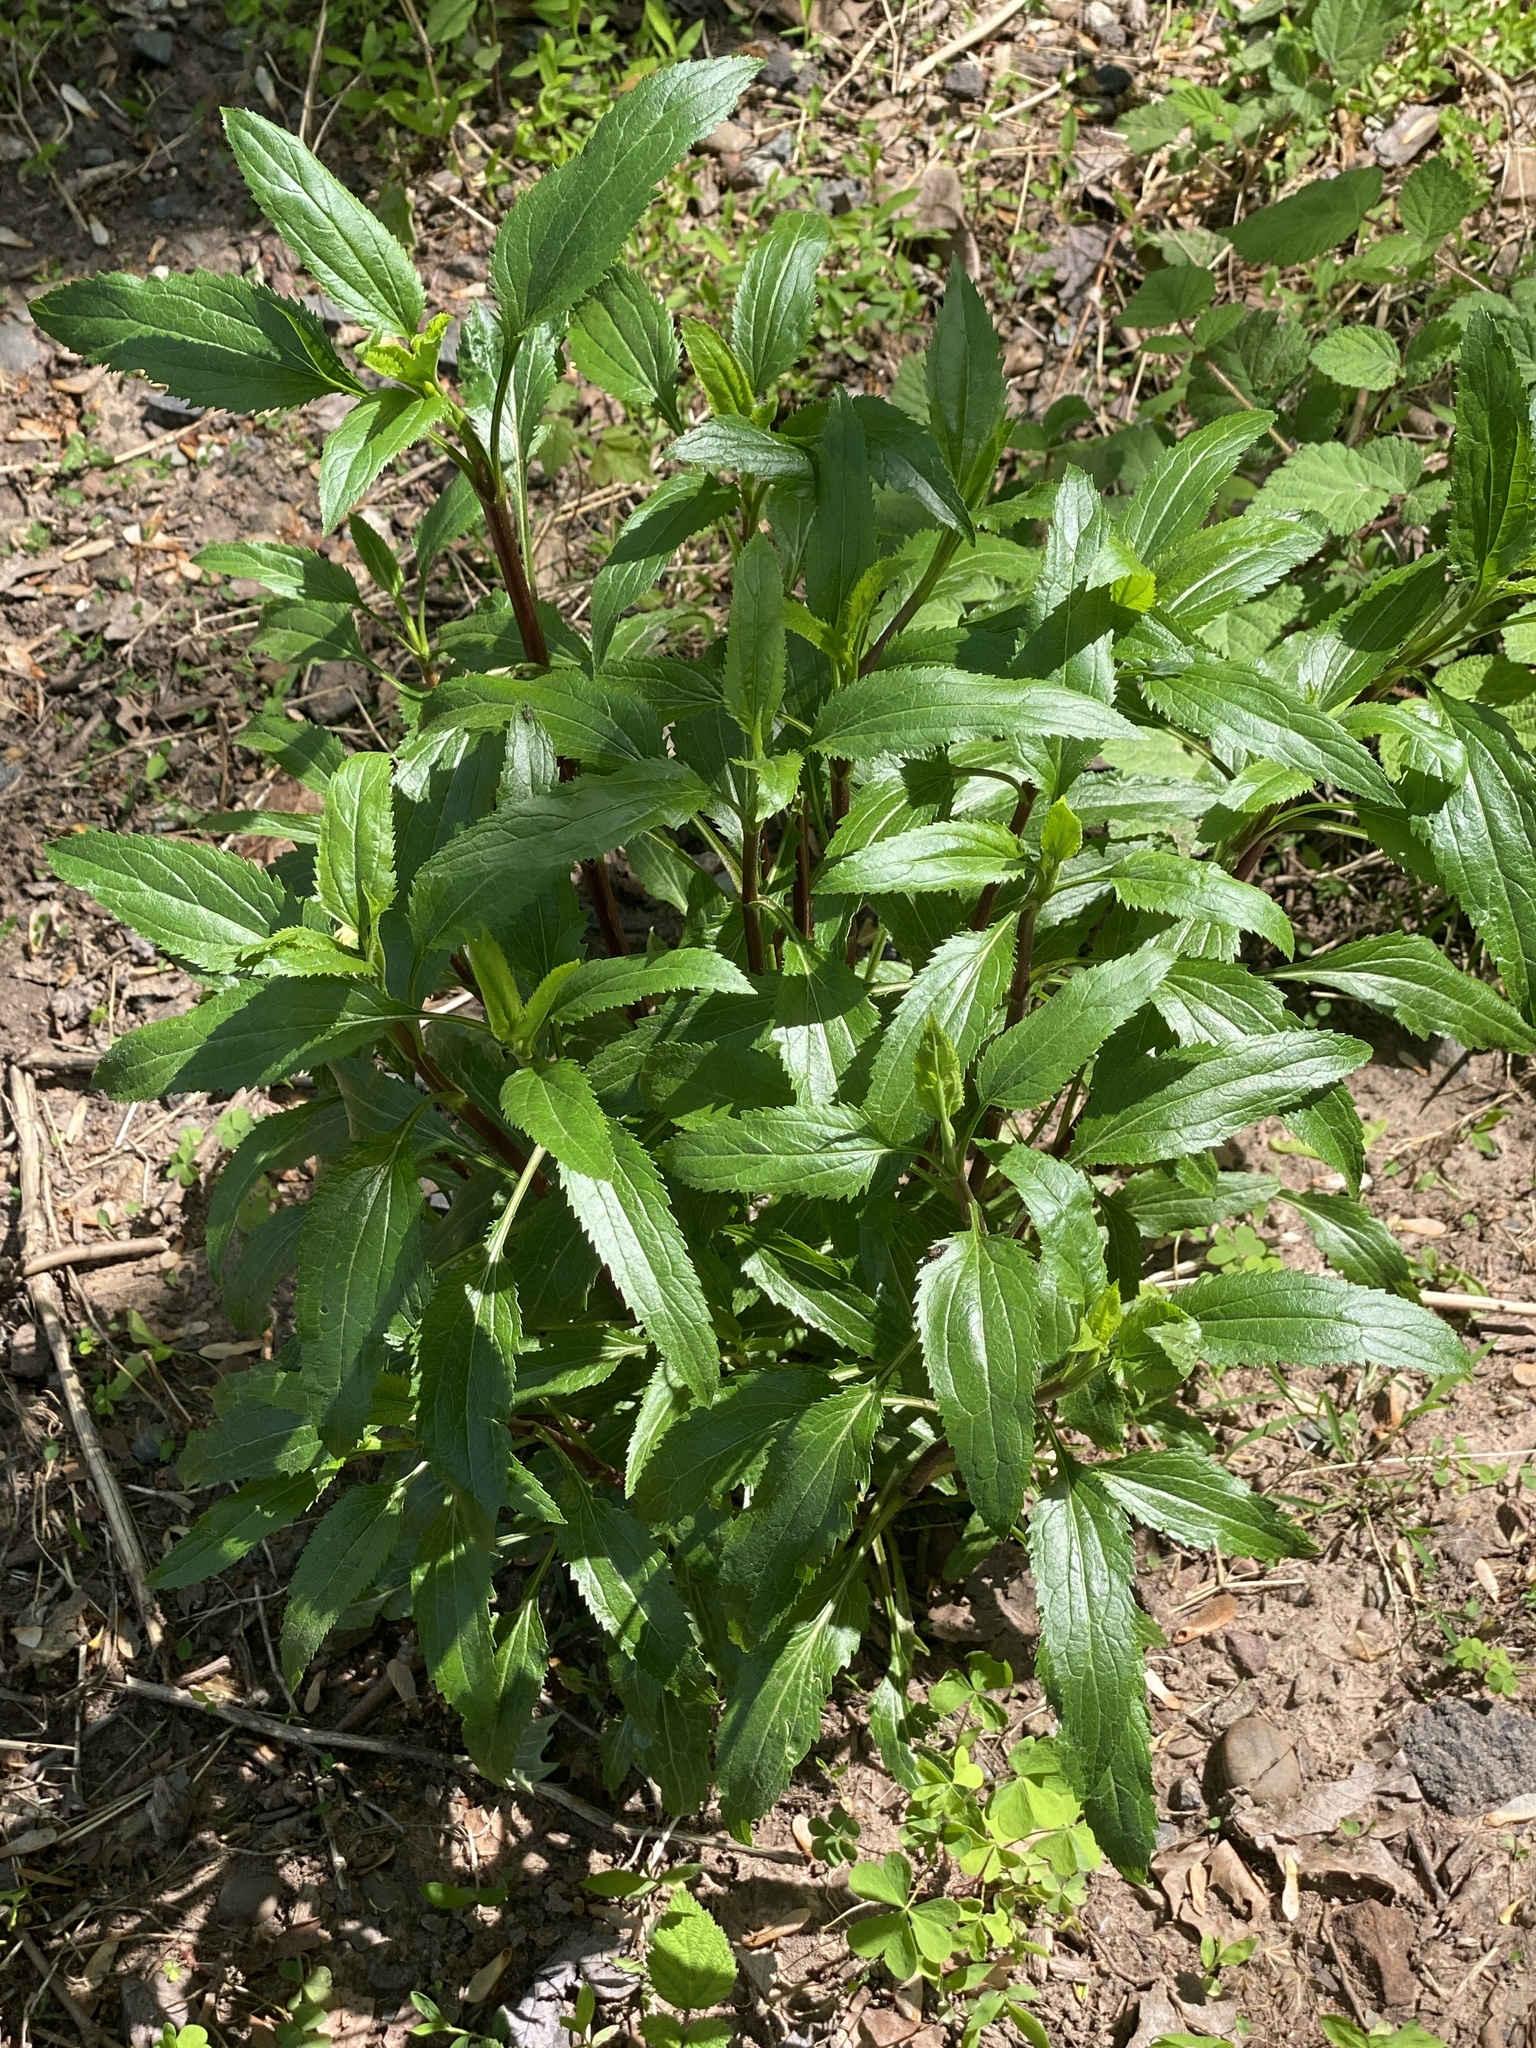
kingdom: Plantae
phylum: Tracheophyta
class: Magnoliopsida
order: Asterales
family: Asteraceae
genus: Eupatorium
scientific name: Eupatorium serotinum
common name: Late boneset
